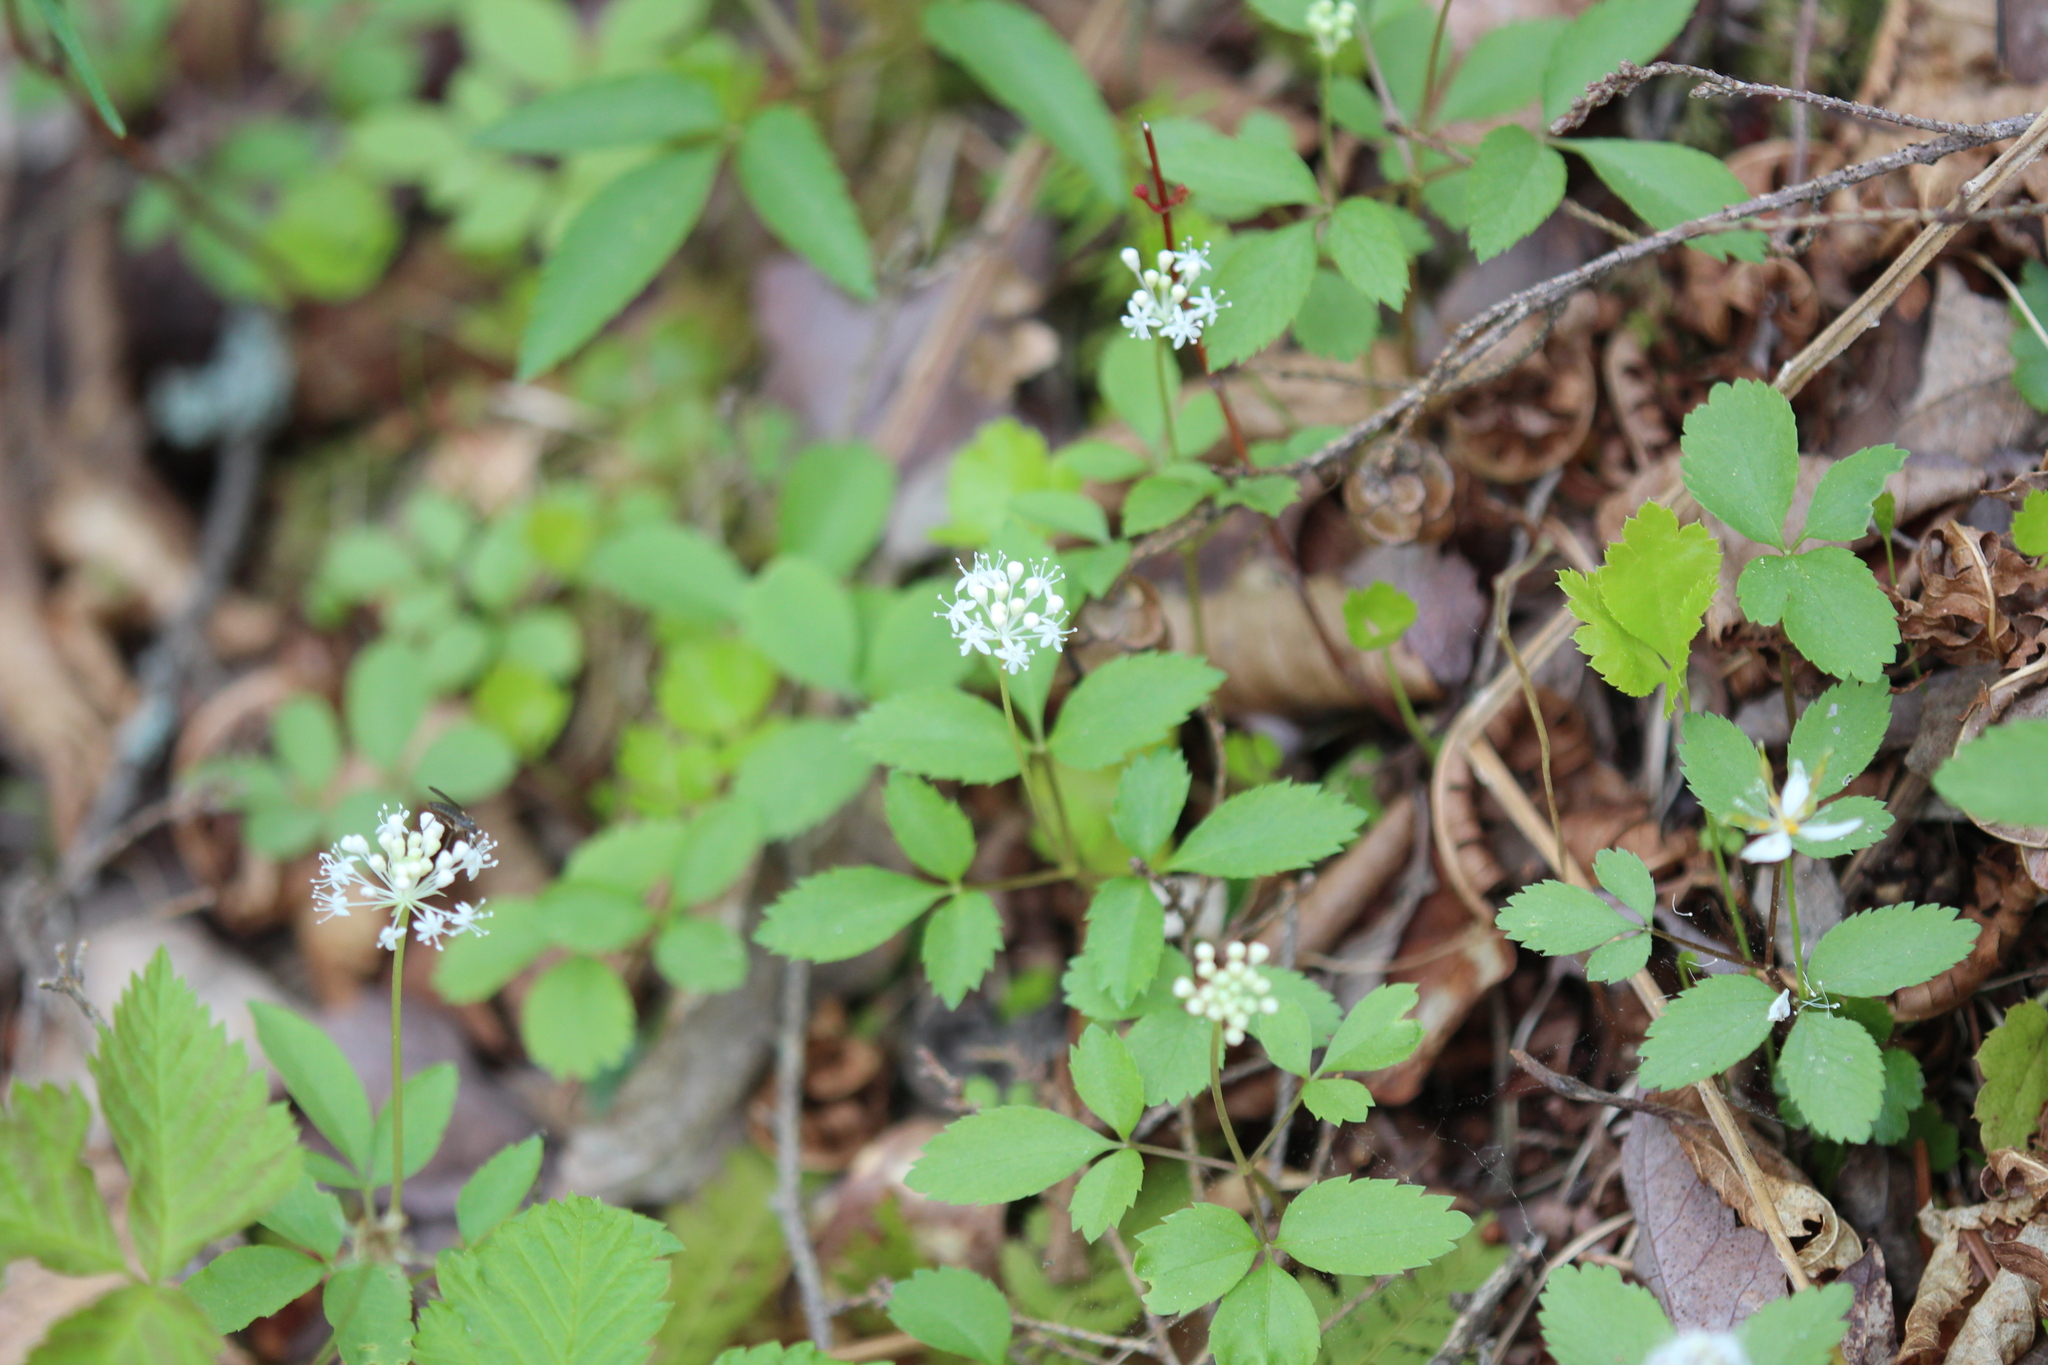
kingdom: Plantae
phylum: Tracheophyta
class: Magnoliopsida
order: Apiales
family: Araliaceae
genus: Panax
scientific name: Panax trifolius
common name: Dwarf ginseng
